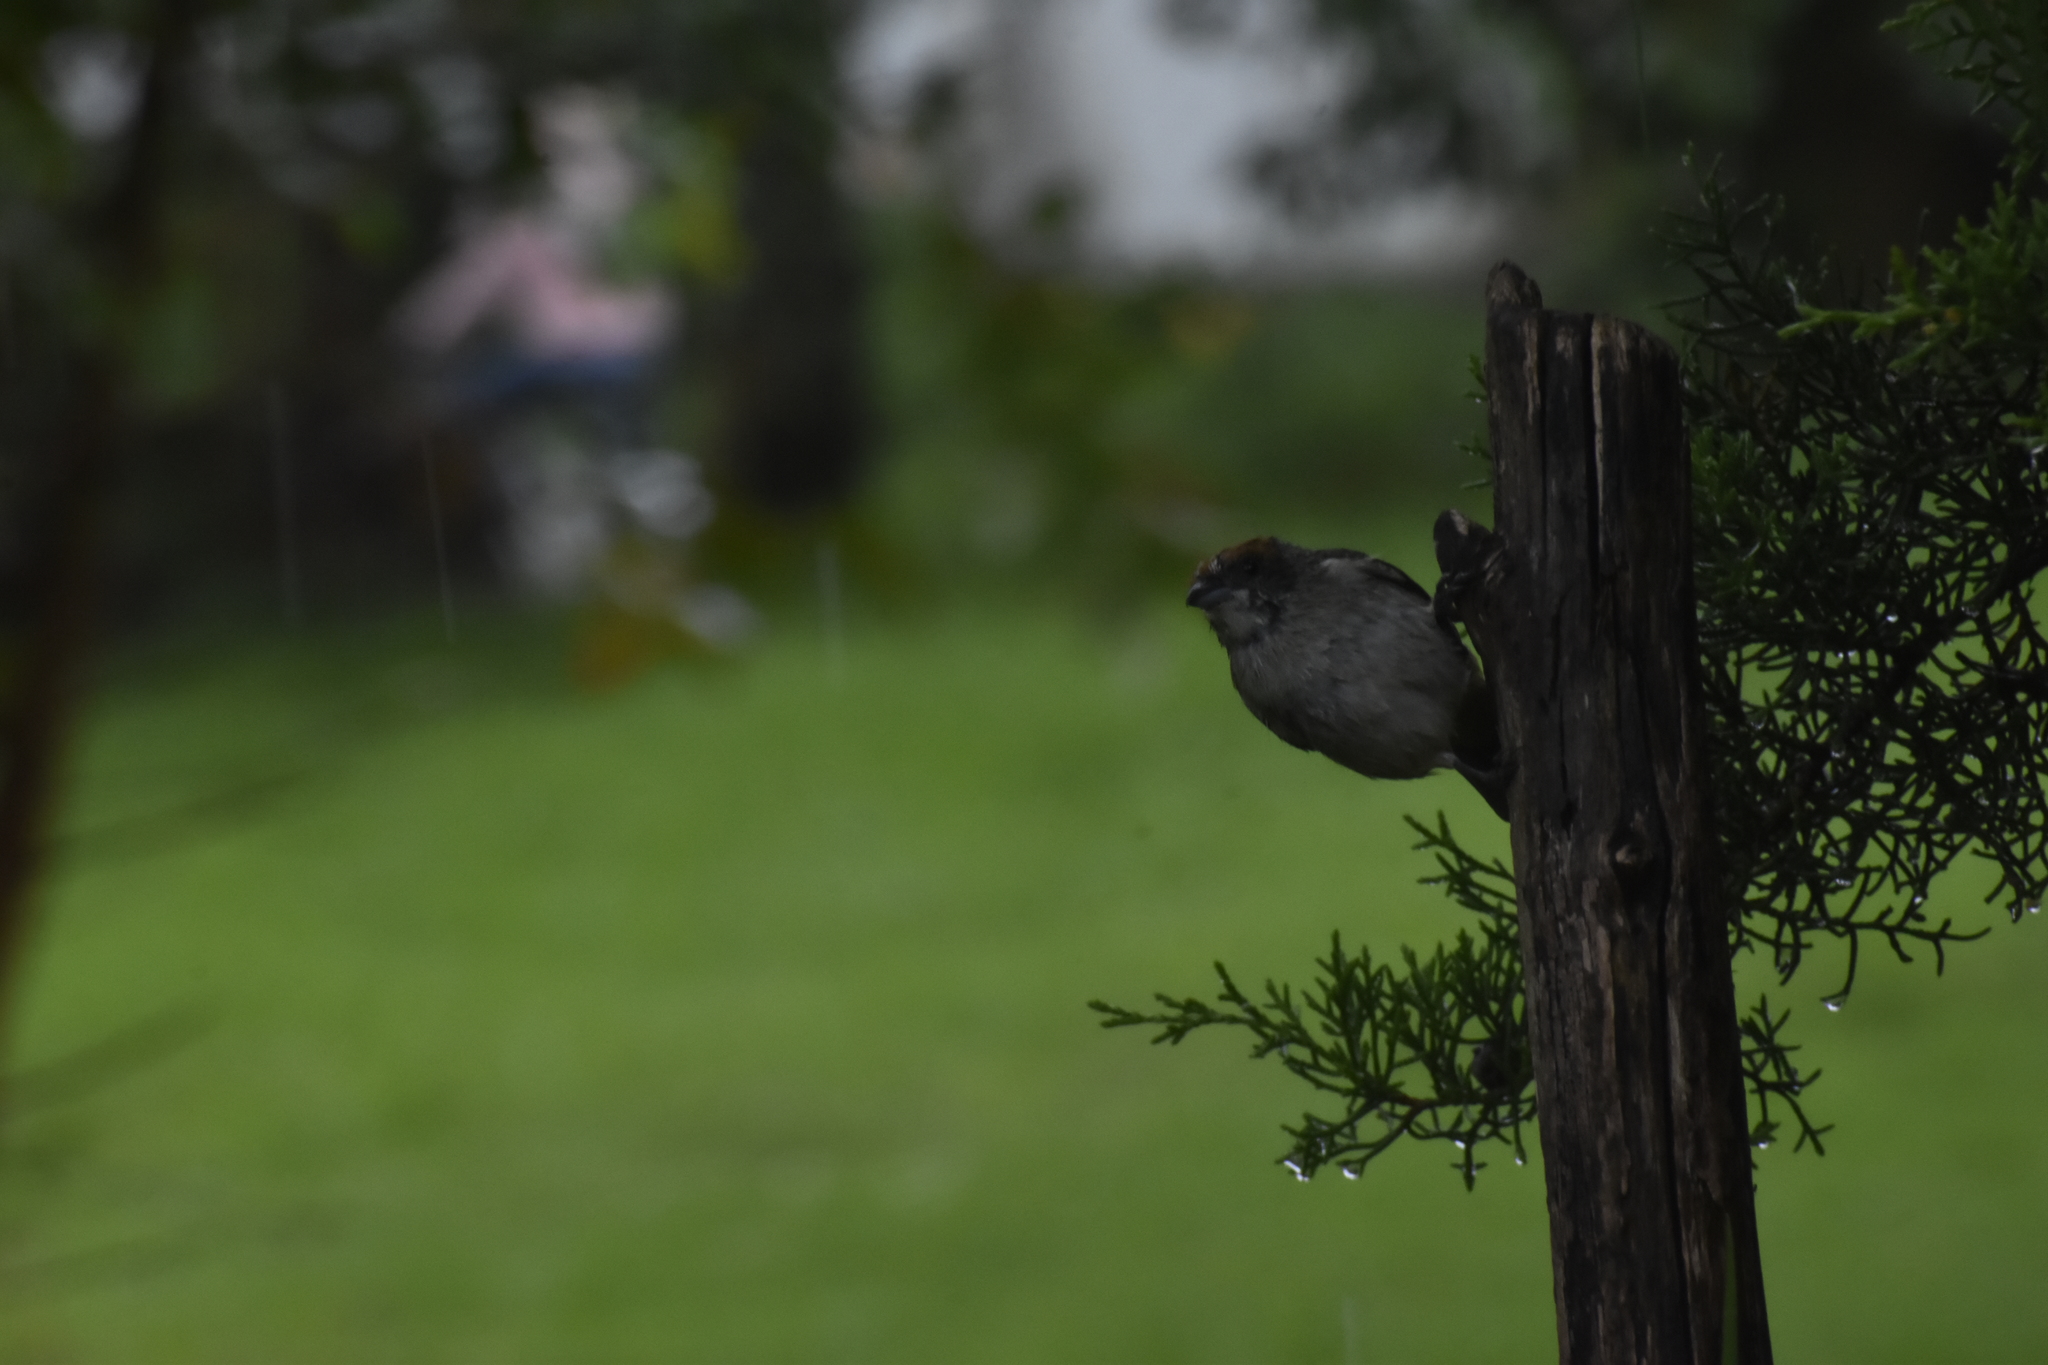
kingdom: Animalia
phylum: Chordata
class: Aves
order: Passeriformes
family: Thraupidae
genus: Stilpnia
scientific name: Stilpnia vitriolina
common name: Scrub tanager
